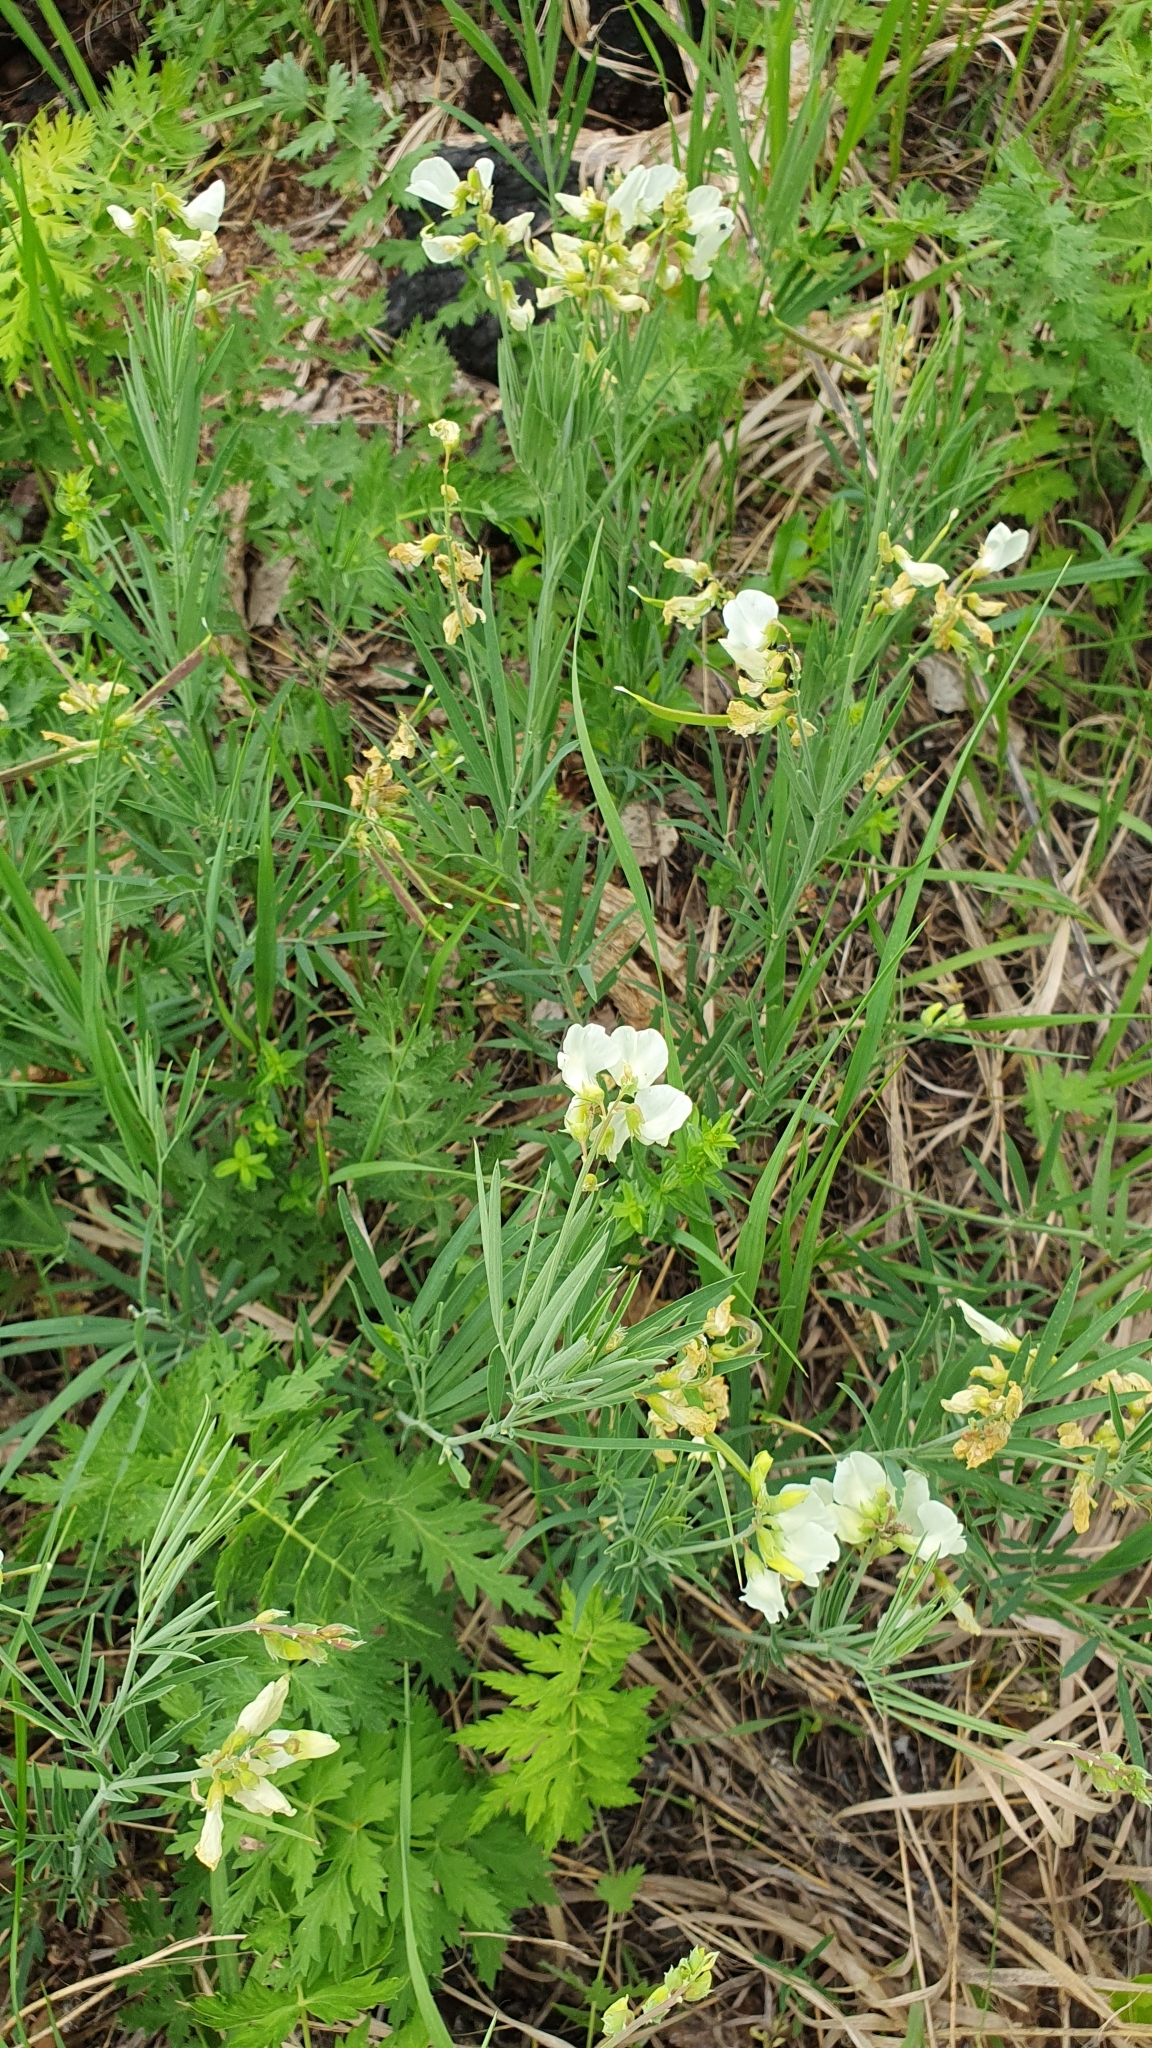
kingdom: Plantae
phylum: Tracheophyta
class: Magnoliopsida
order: Fabales
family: Fabaceae
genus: Lathyrus
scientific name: Lathyrus pallescens
